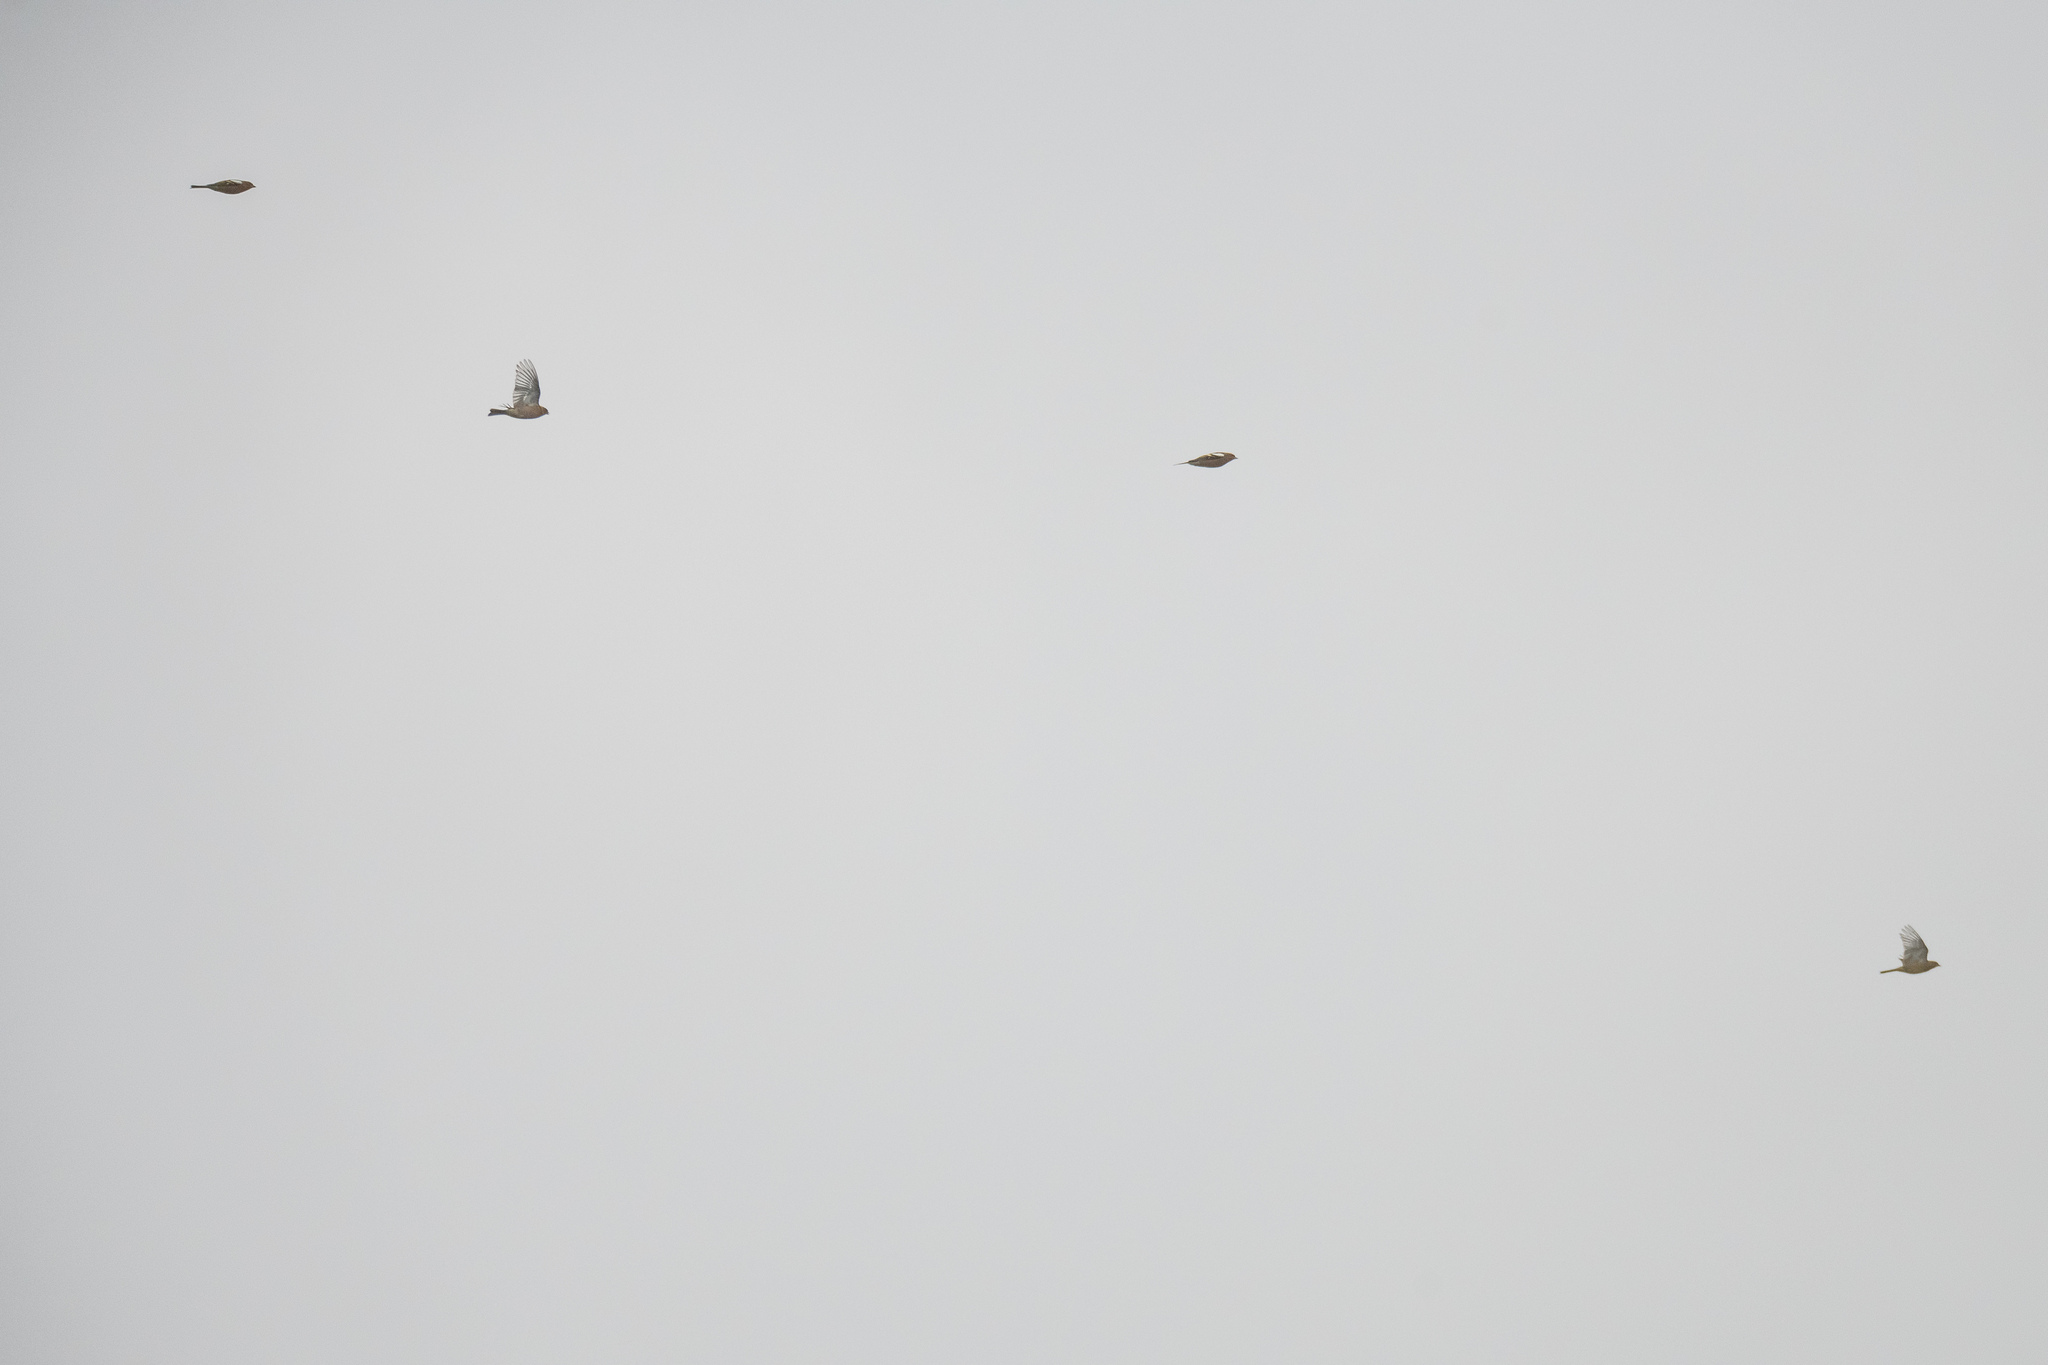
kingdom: Animalia
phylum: Chordata
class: Aves
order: Passeriformes
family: Fringillidae
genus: Fringilla
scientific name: Fringilla coelebs
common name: Common chaffinch
